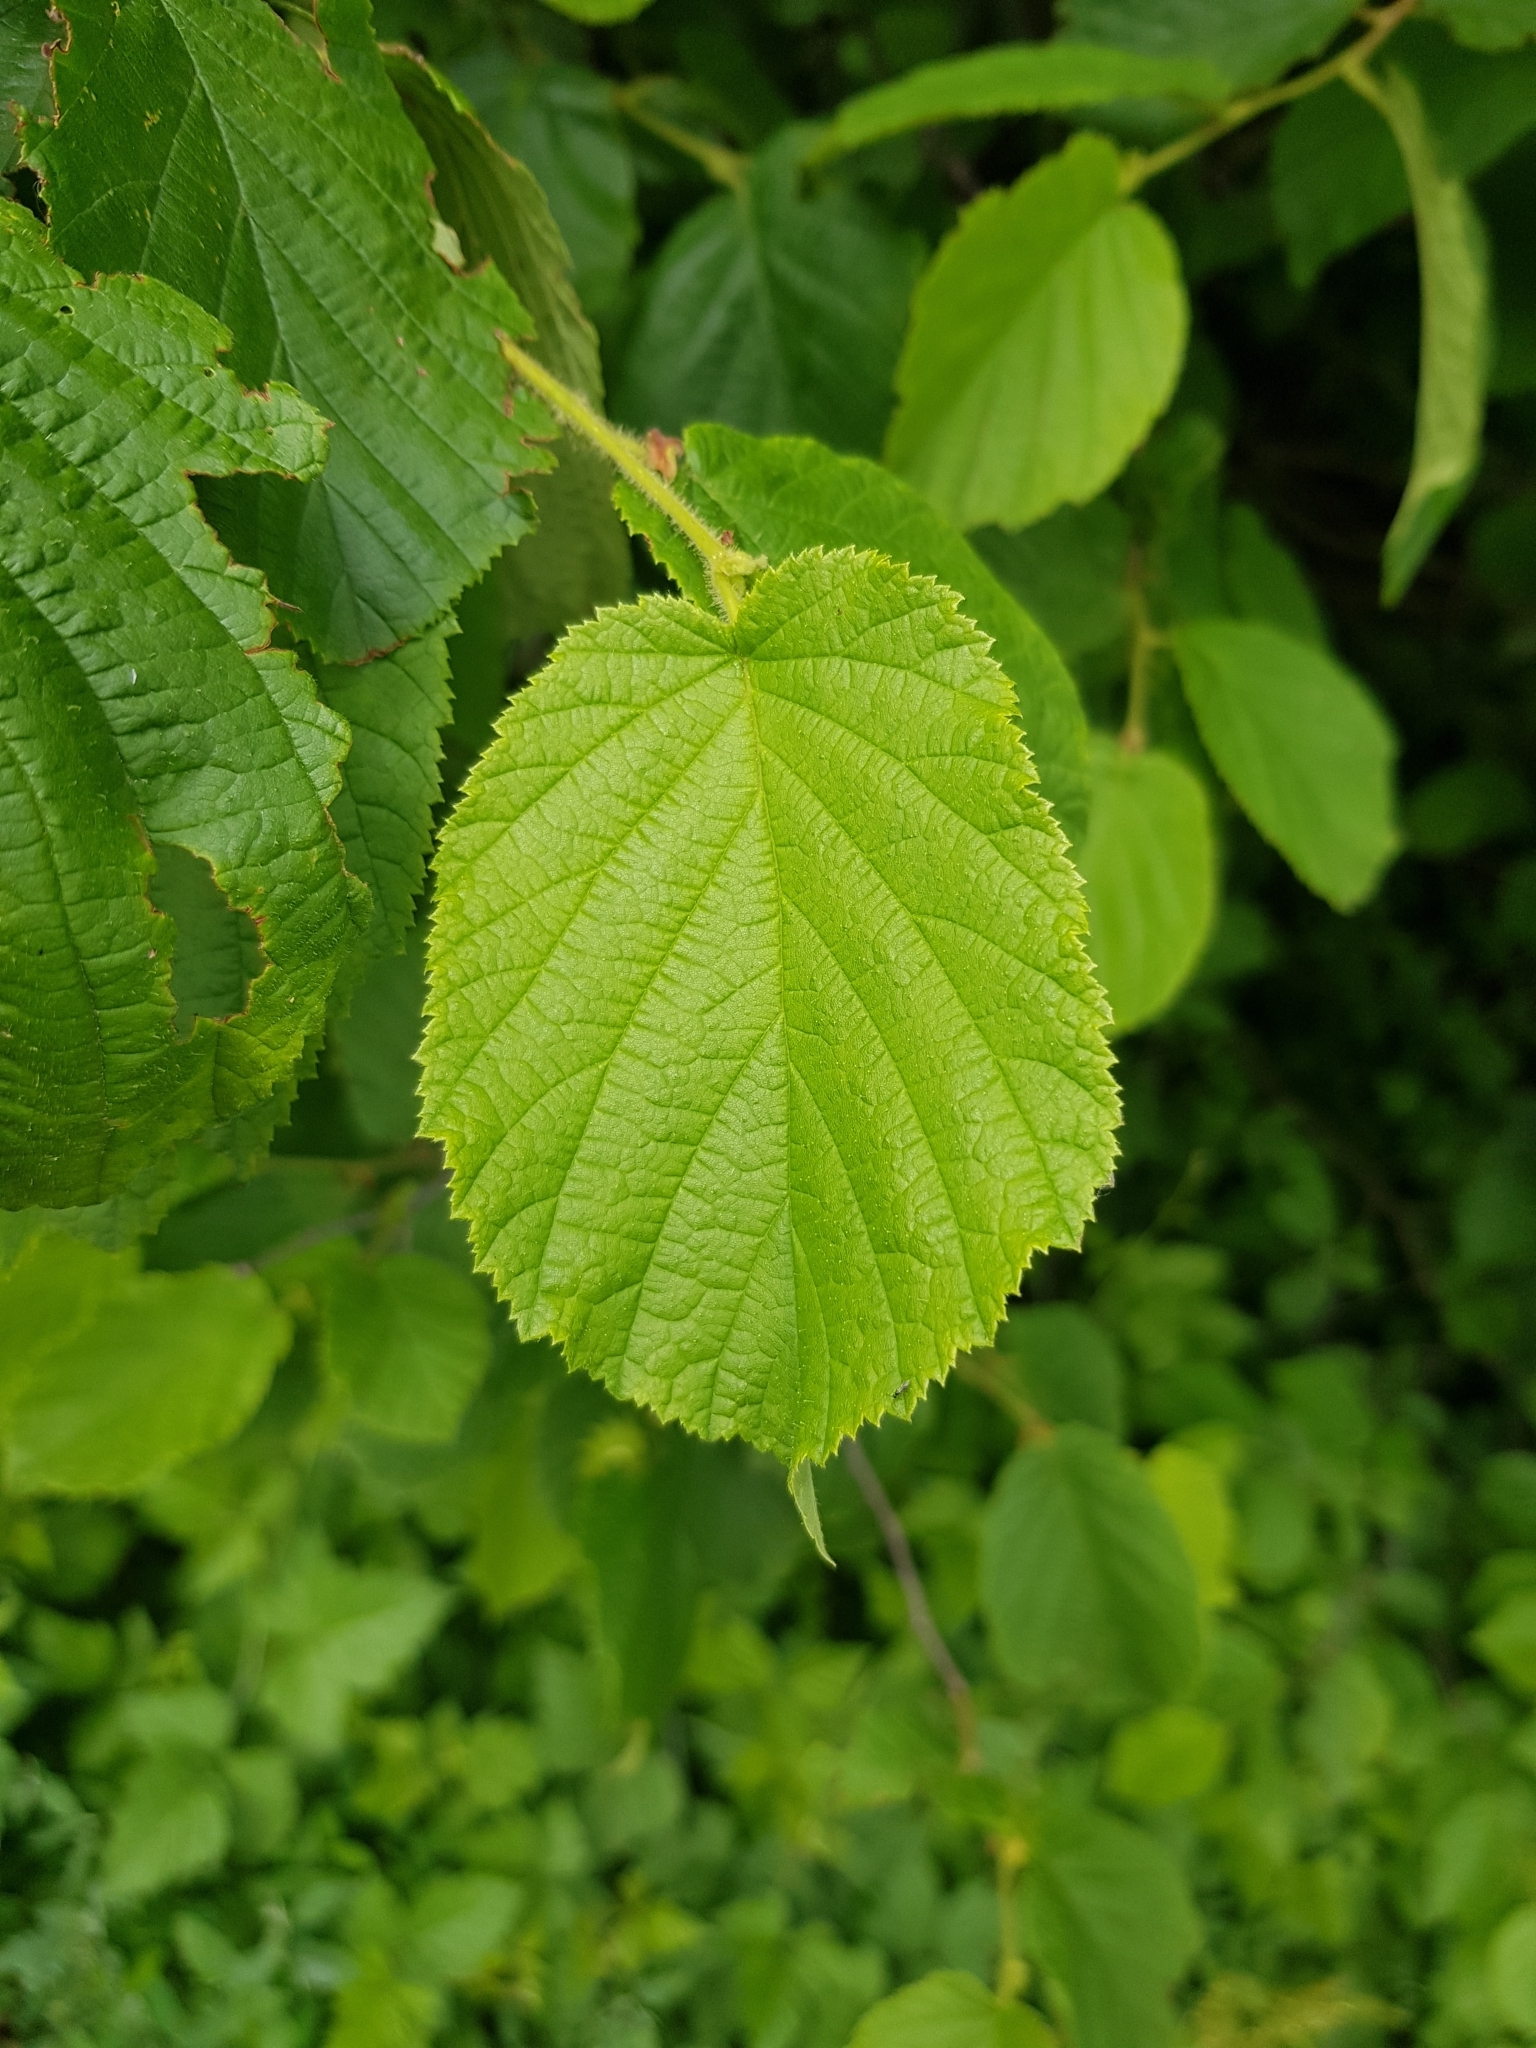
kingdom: Plantae
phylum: Tracheophyta
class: Magnoliopsida
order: Fagales
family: Betulaceae
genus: Corylus
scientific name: Corylus avellana
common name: European hazel
